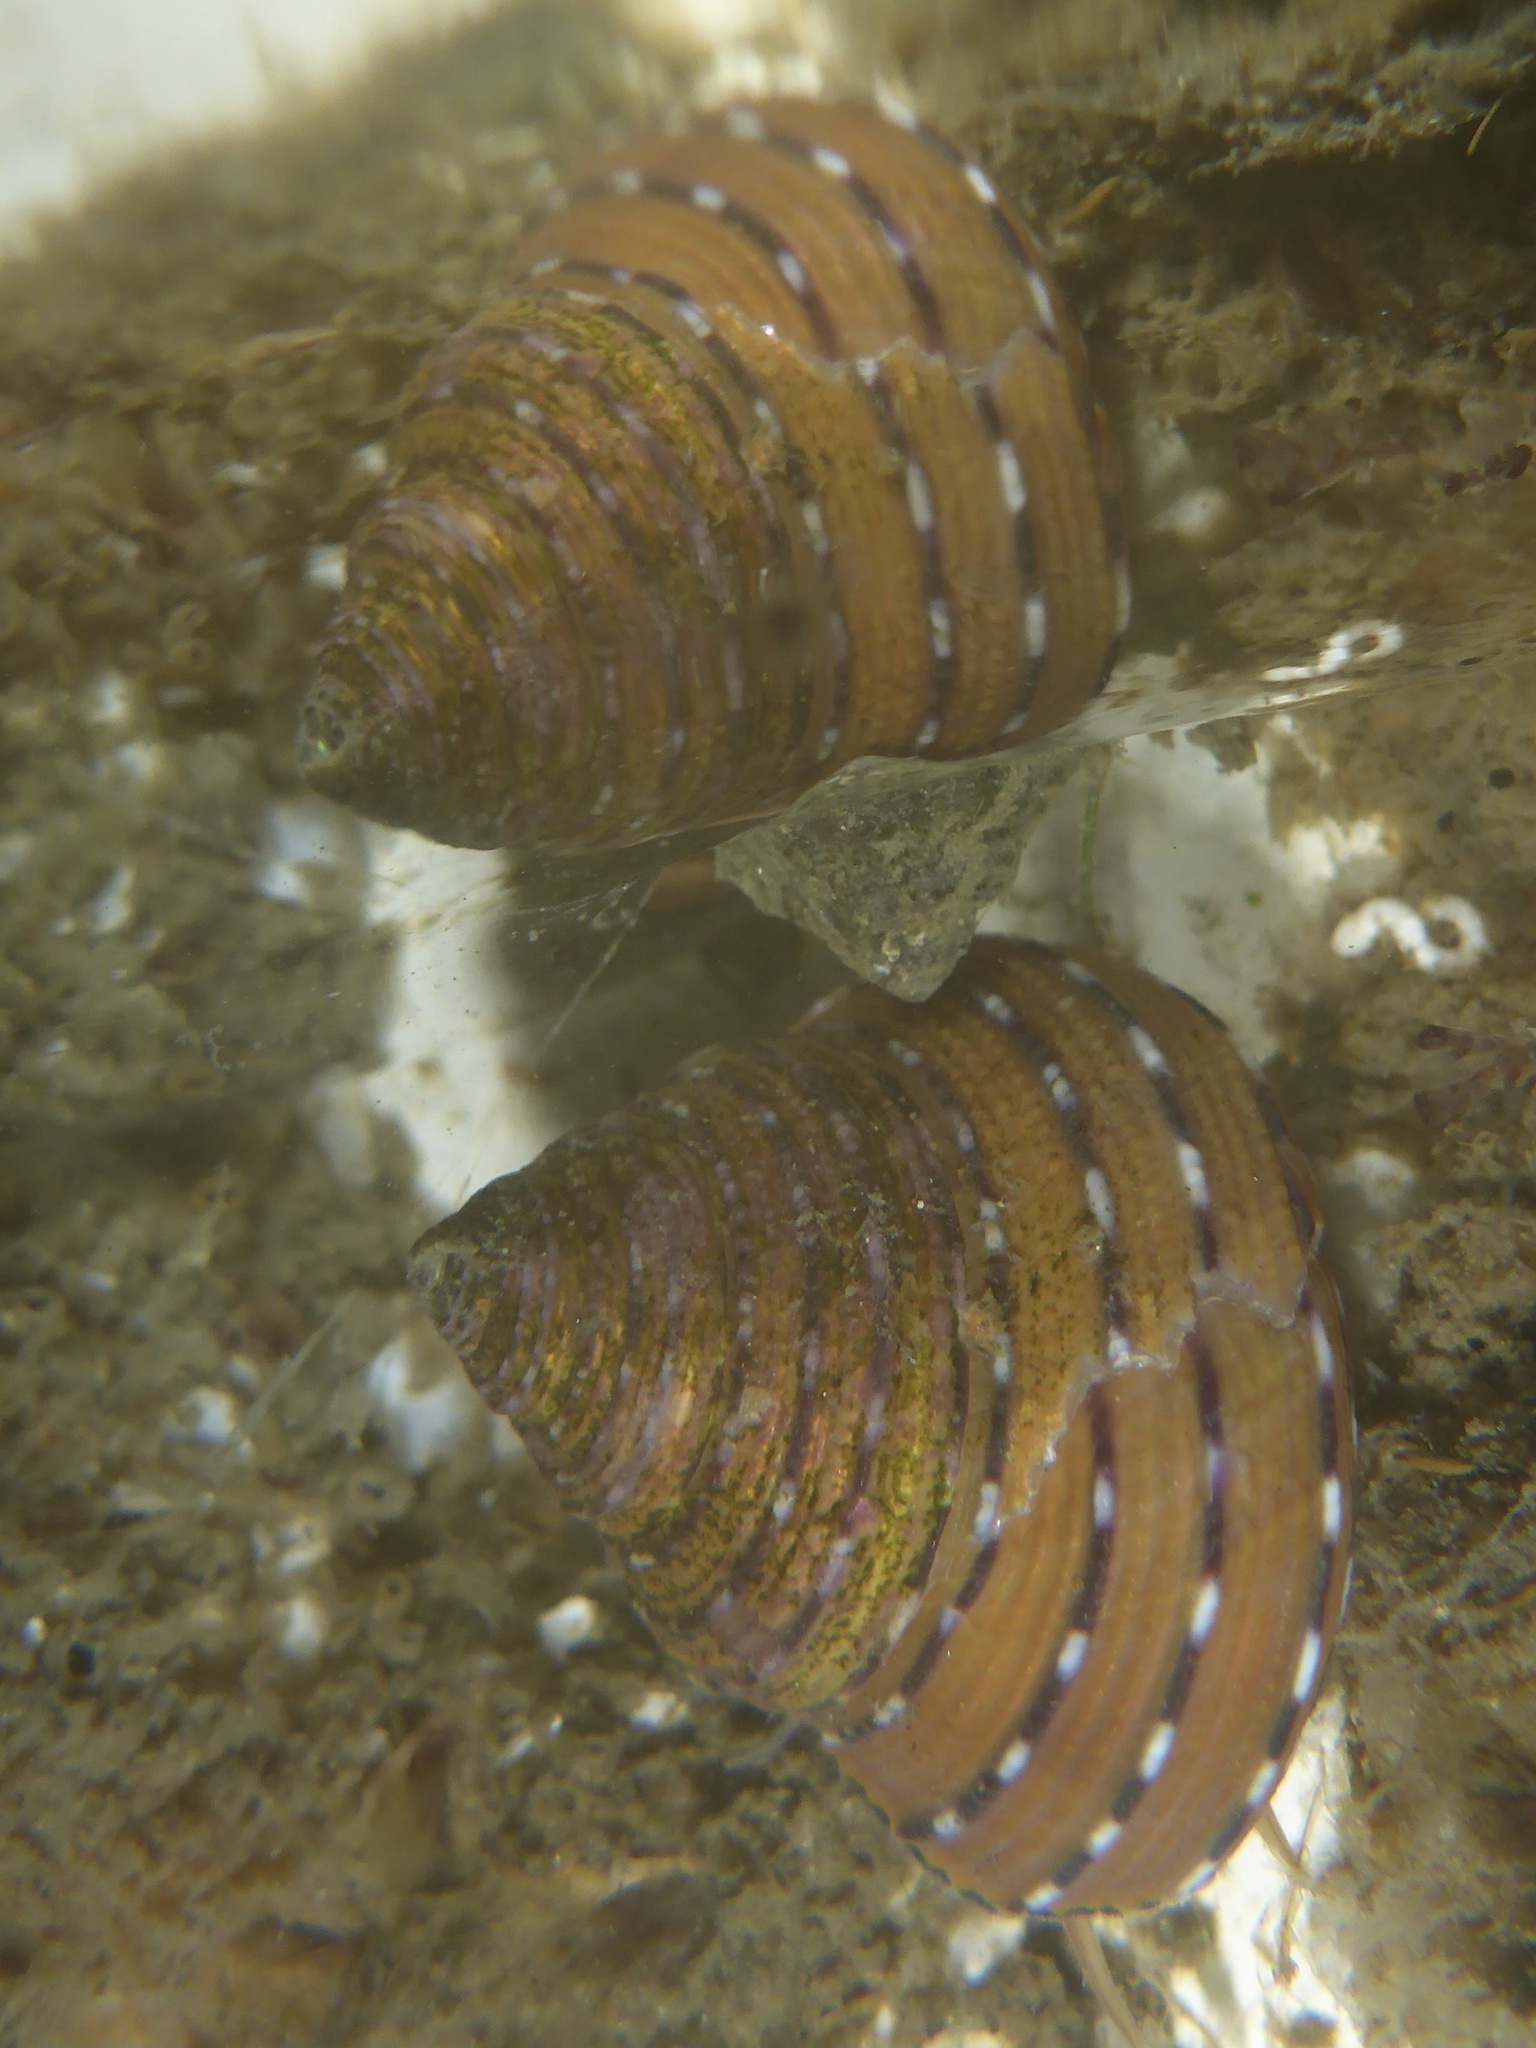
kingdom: Animalia
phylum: Mollusca
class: Gastropoda
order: Trochida
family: Calliostomatidae
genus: Calliostoma
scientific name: Calliostoma tricolor
